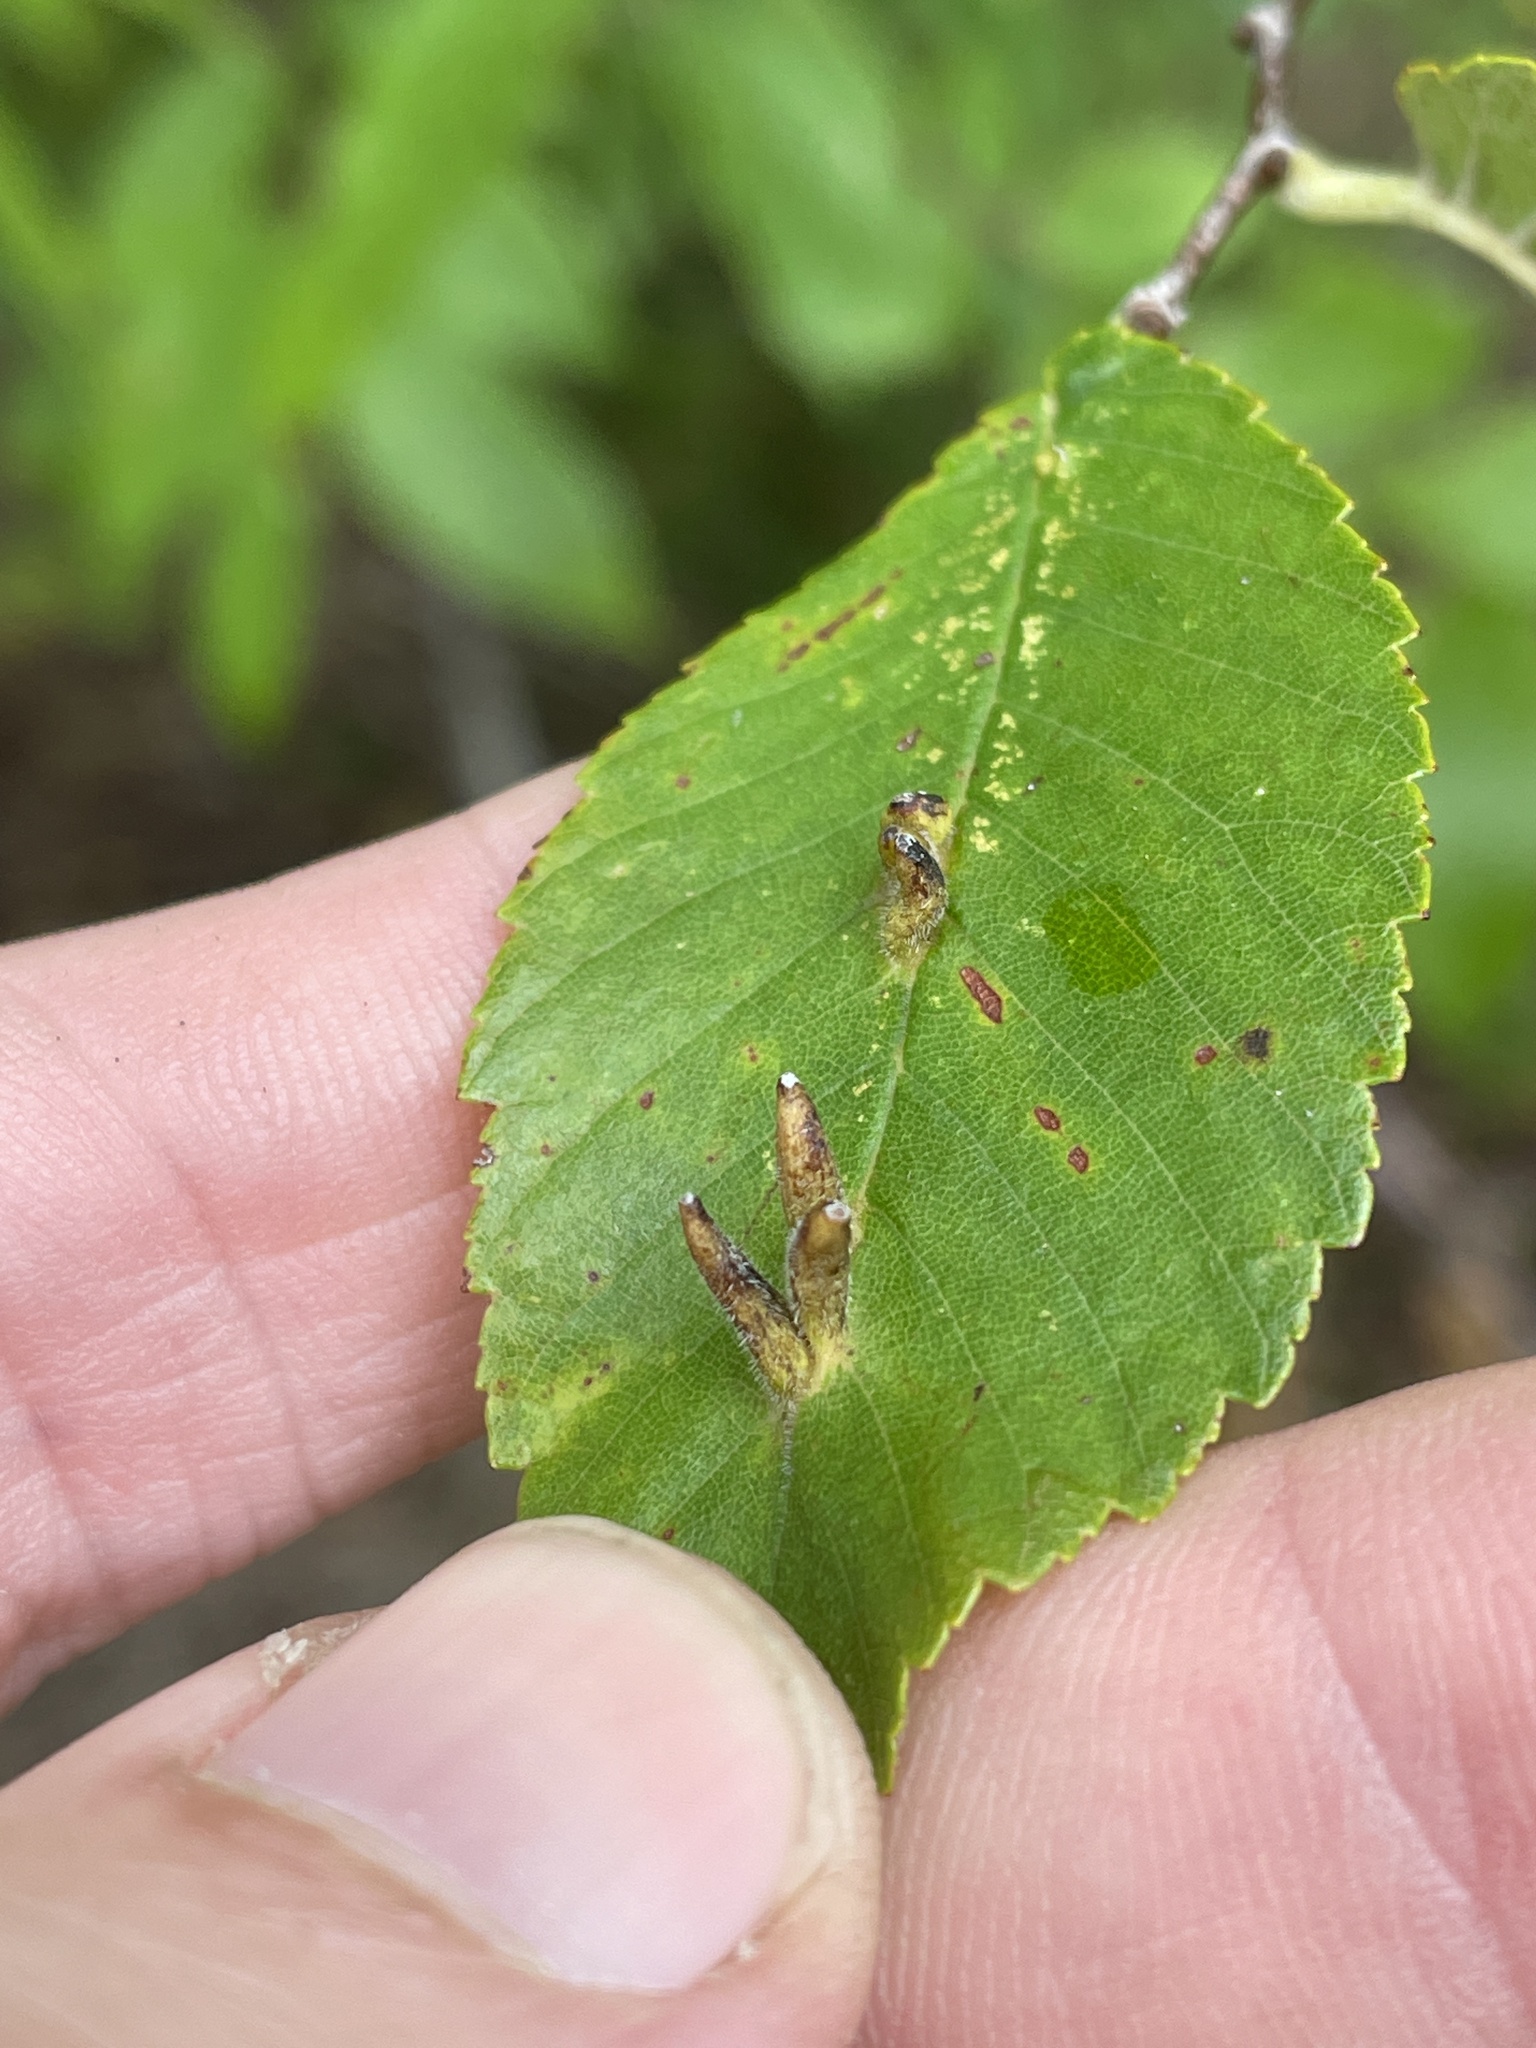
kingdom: Animalia
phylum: Arthropoda
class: Arachnida
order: Trombidiformes
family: Eriophyidae
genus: Aceria
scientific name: Aceria
